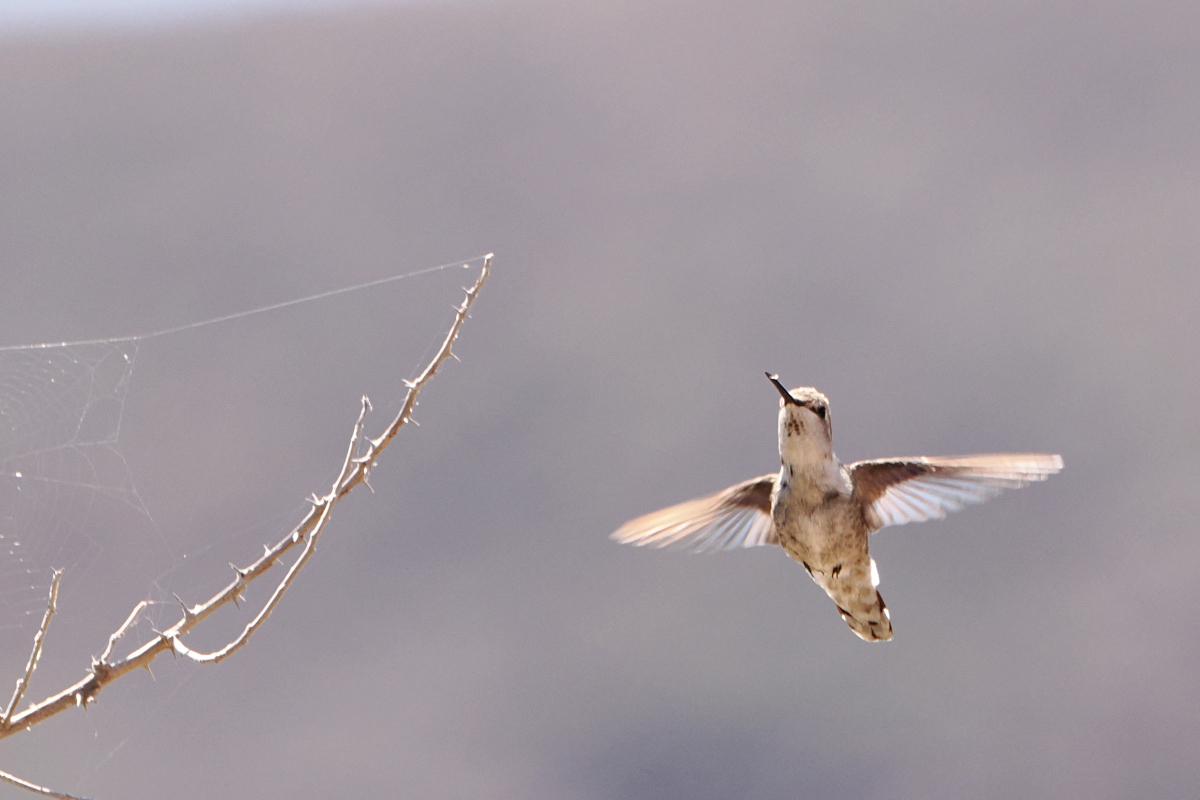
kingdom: Animalia
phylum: Chordata
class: Aves
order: Apodiformes
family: Trochilidae
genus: Calypte
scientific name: Calypte costae
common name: Costa's hummingbird
